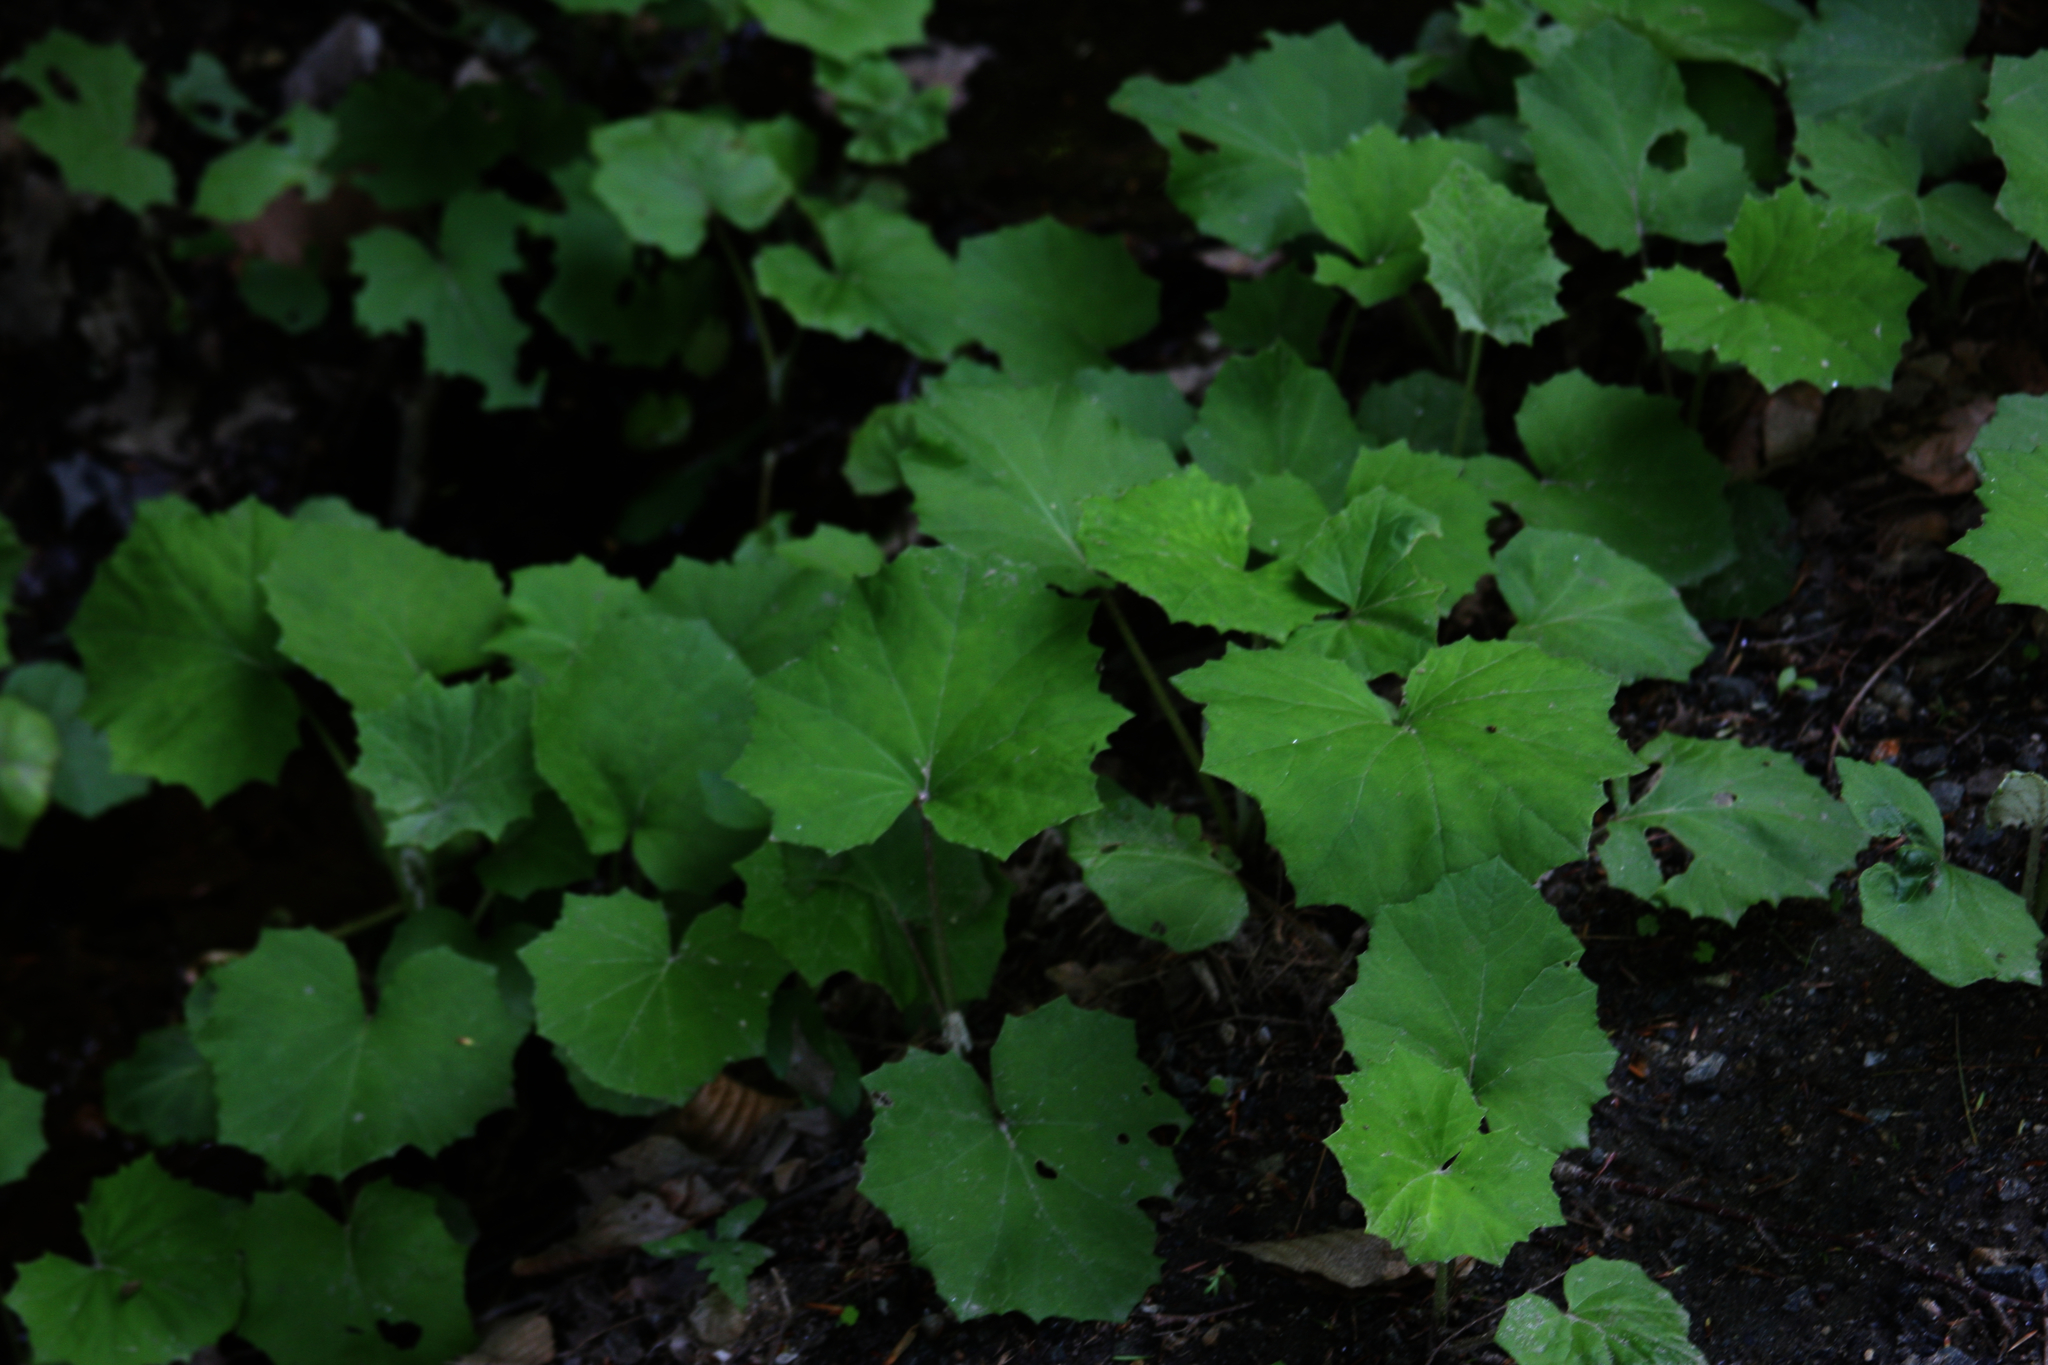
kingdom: Plantae
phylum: Tracheophyta
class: Magnoliopsida
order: Asterales
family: Asteraceae
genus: Tussilago
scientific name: Tussilago farfara
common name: Coltsfoot
